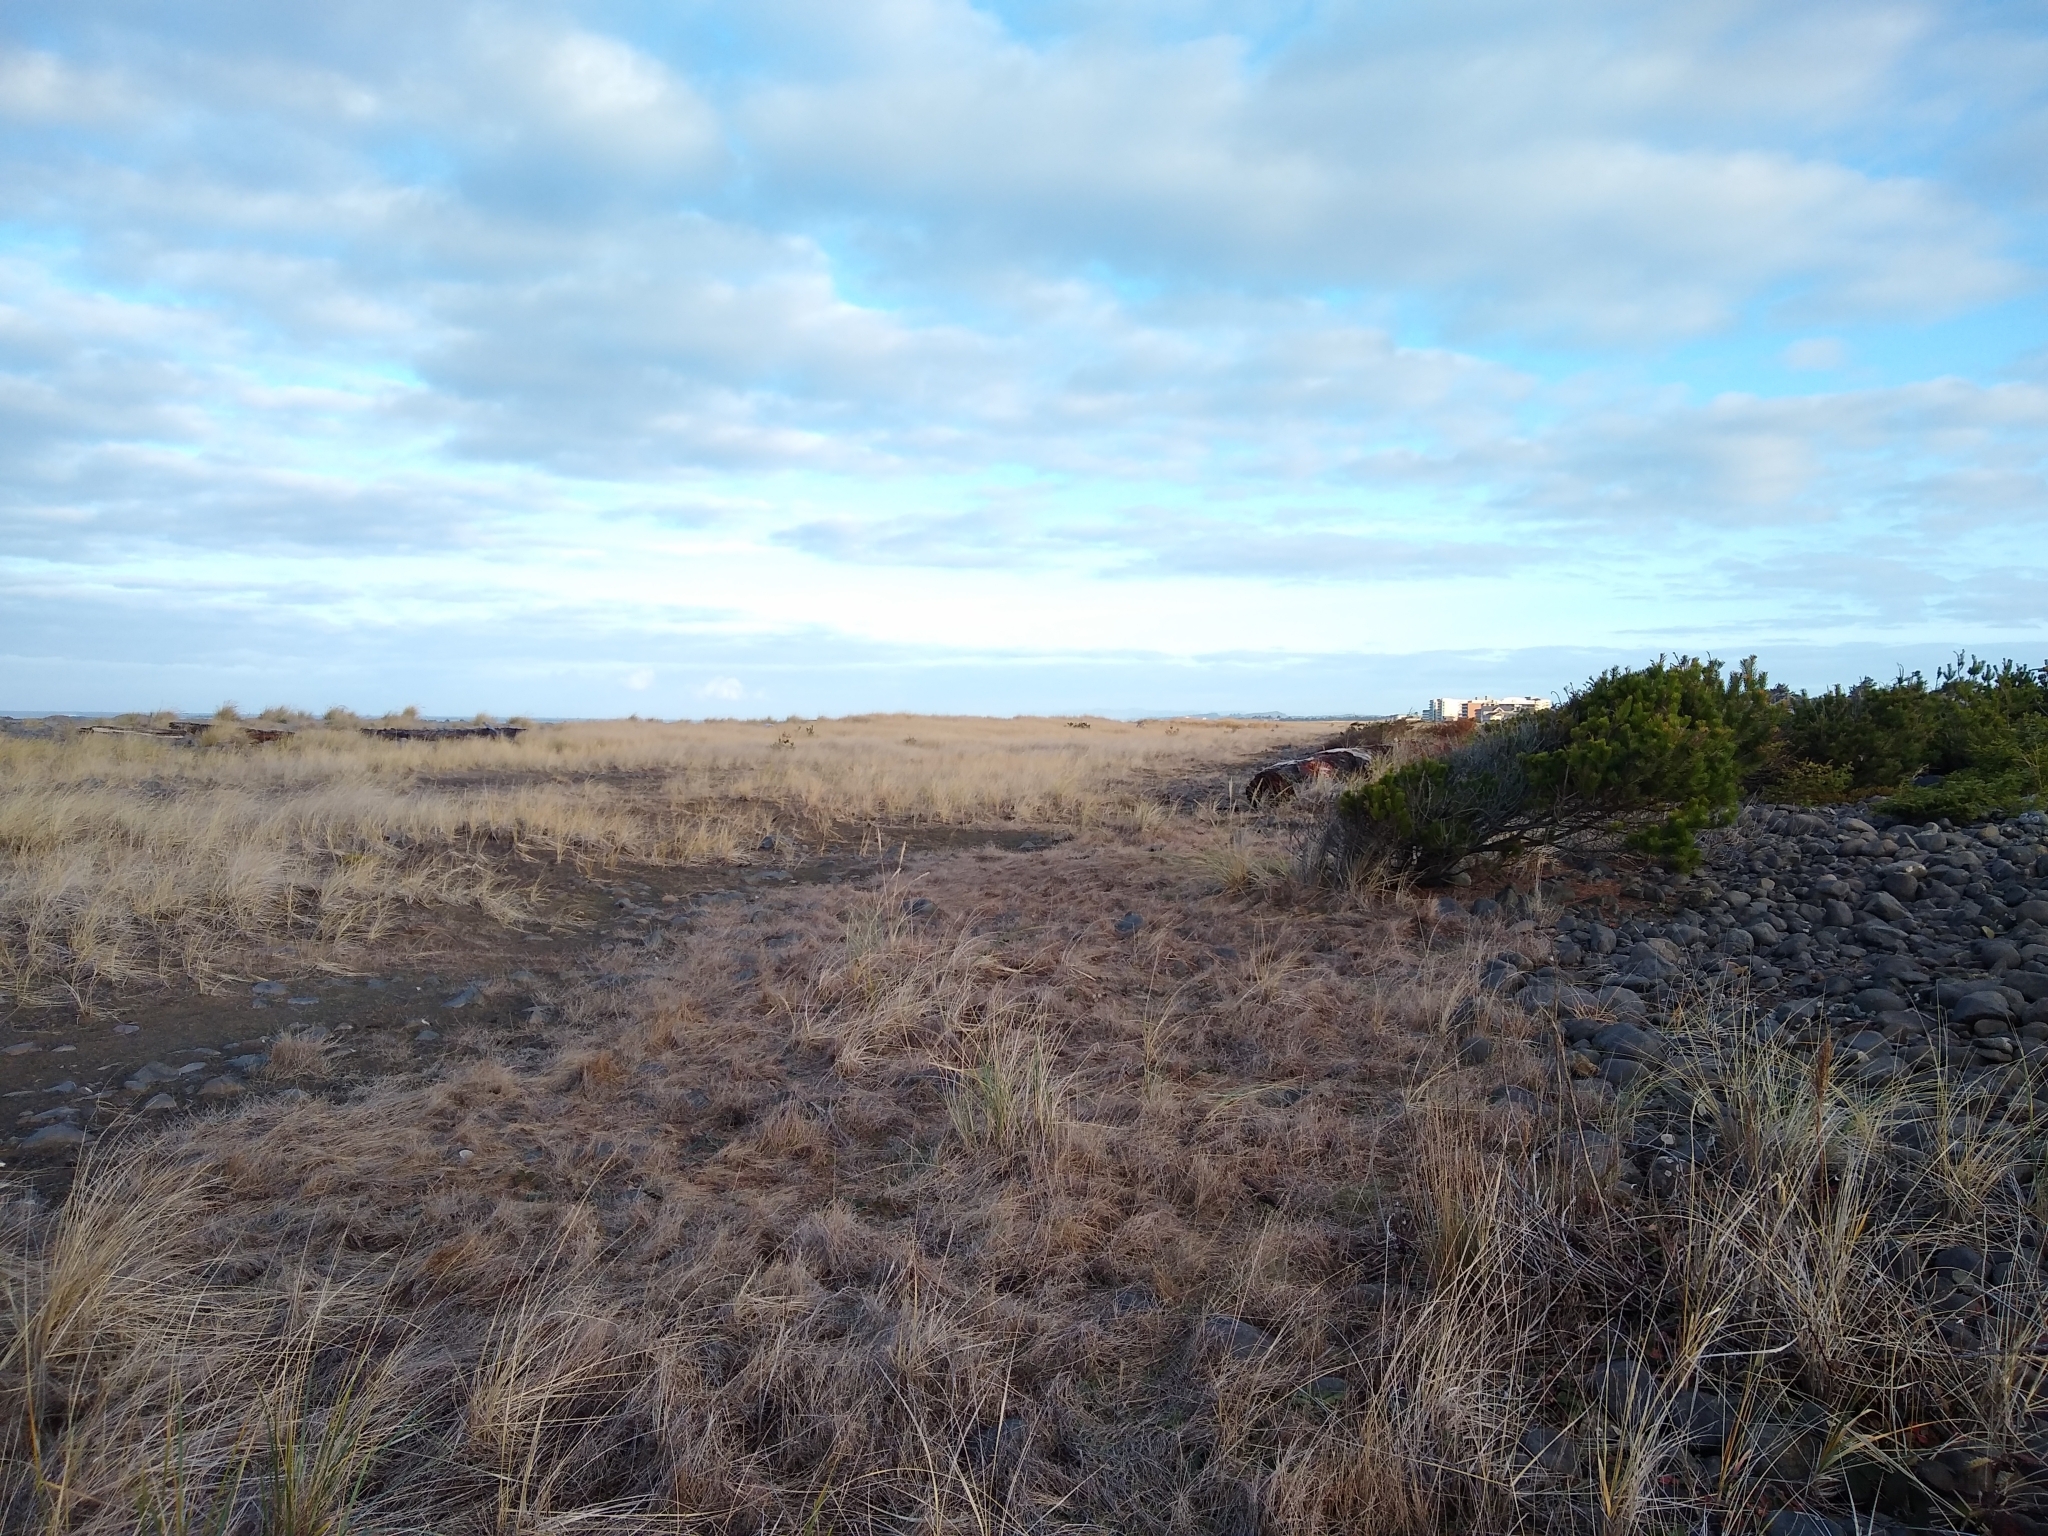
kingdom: Plantae
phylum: Tracheophyta
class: Pinopsida
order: Pinales
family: Pinaceae
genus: Pinus
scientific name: Pinus contorta
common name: Lodgepole pine
